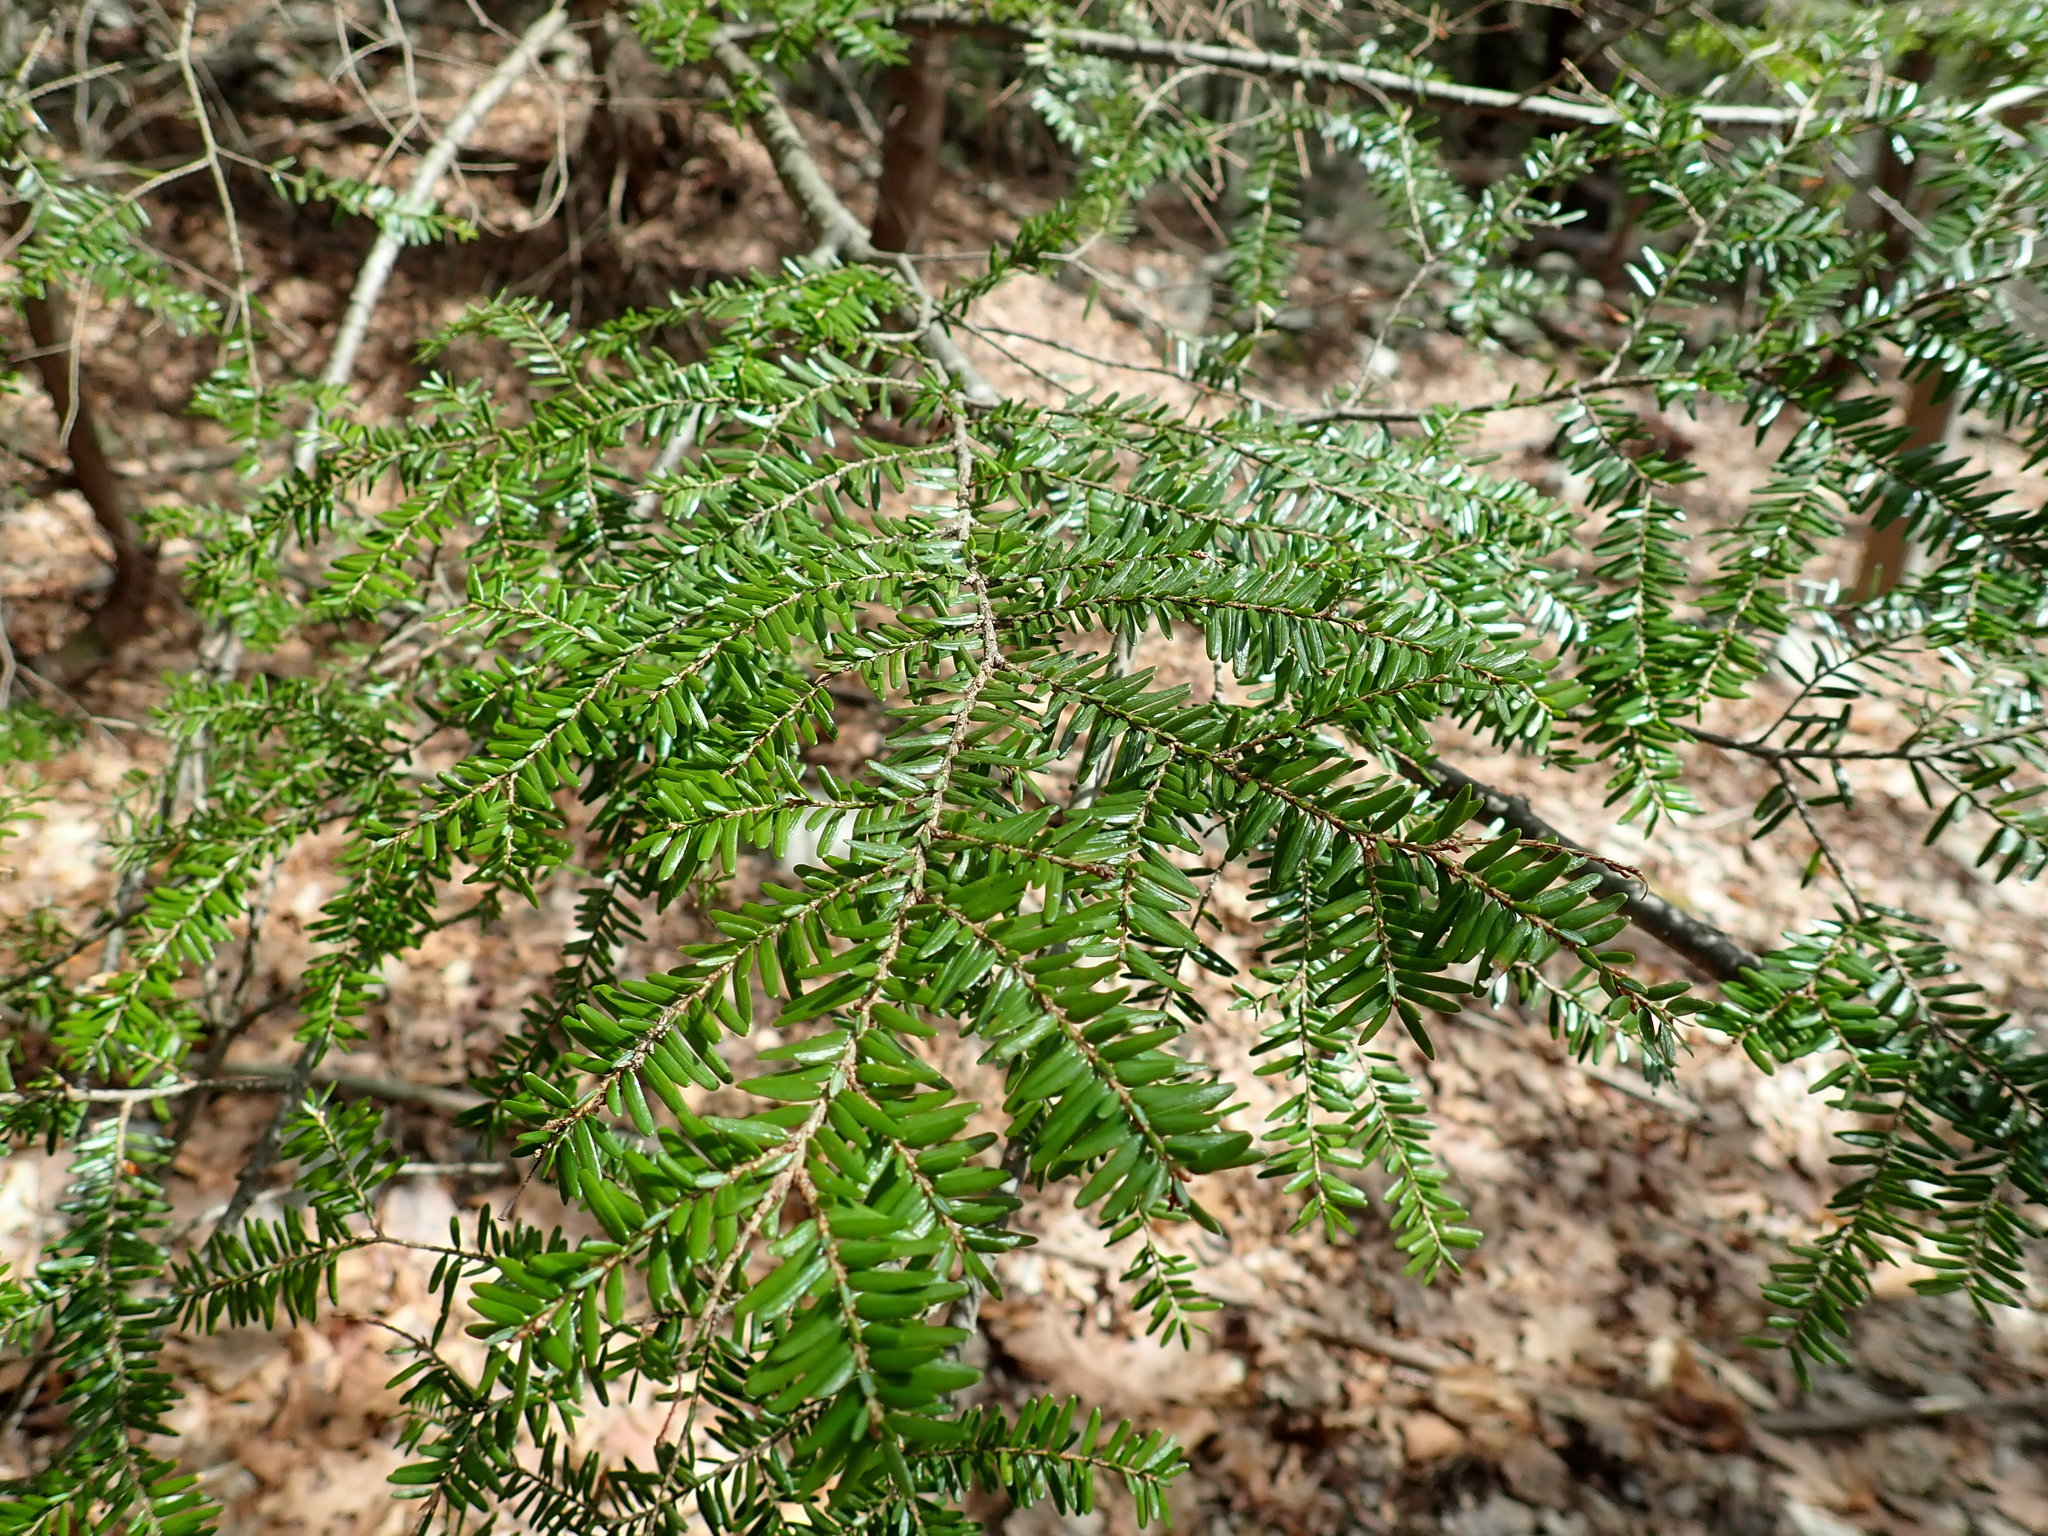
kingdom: Plantae
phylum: Tracheophyta
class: Pinopsida
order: Pinales
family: Pinaceae
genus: Tsuga
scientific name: Tsuga canadensis
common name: Eastern hemlock
